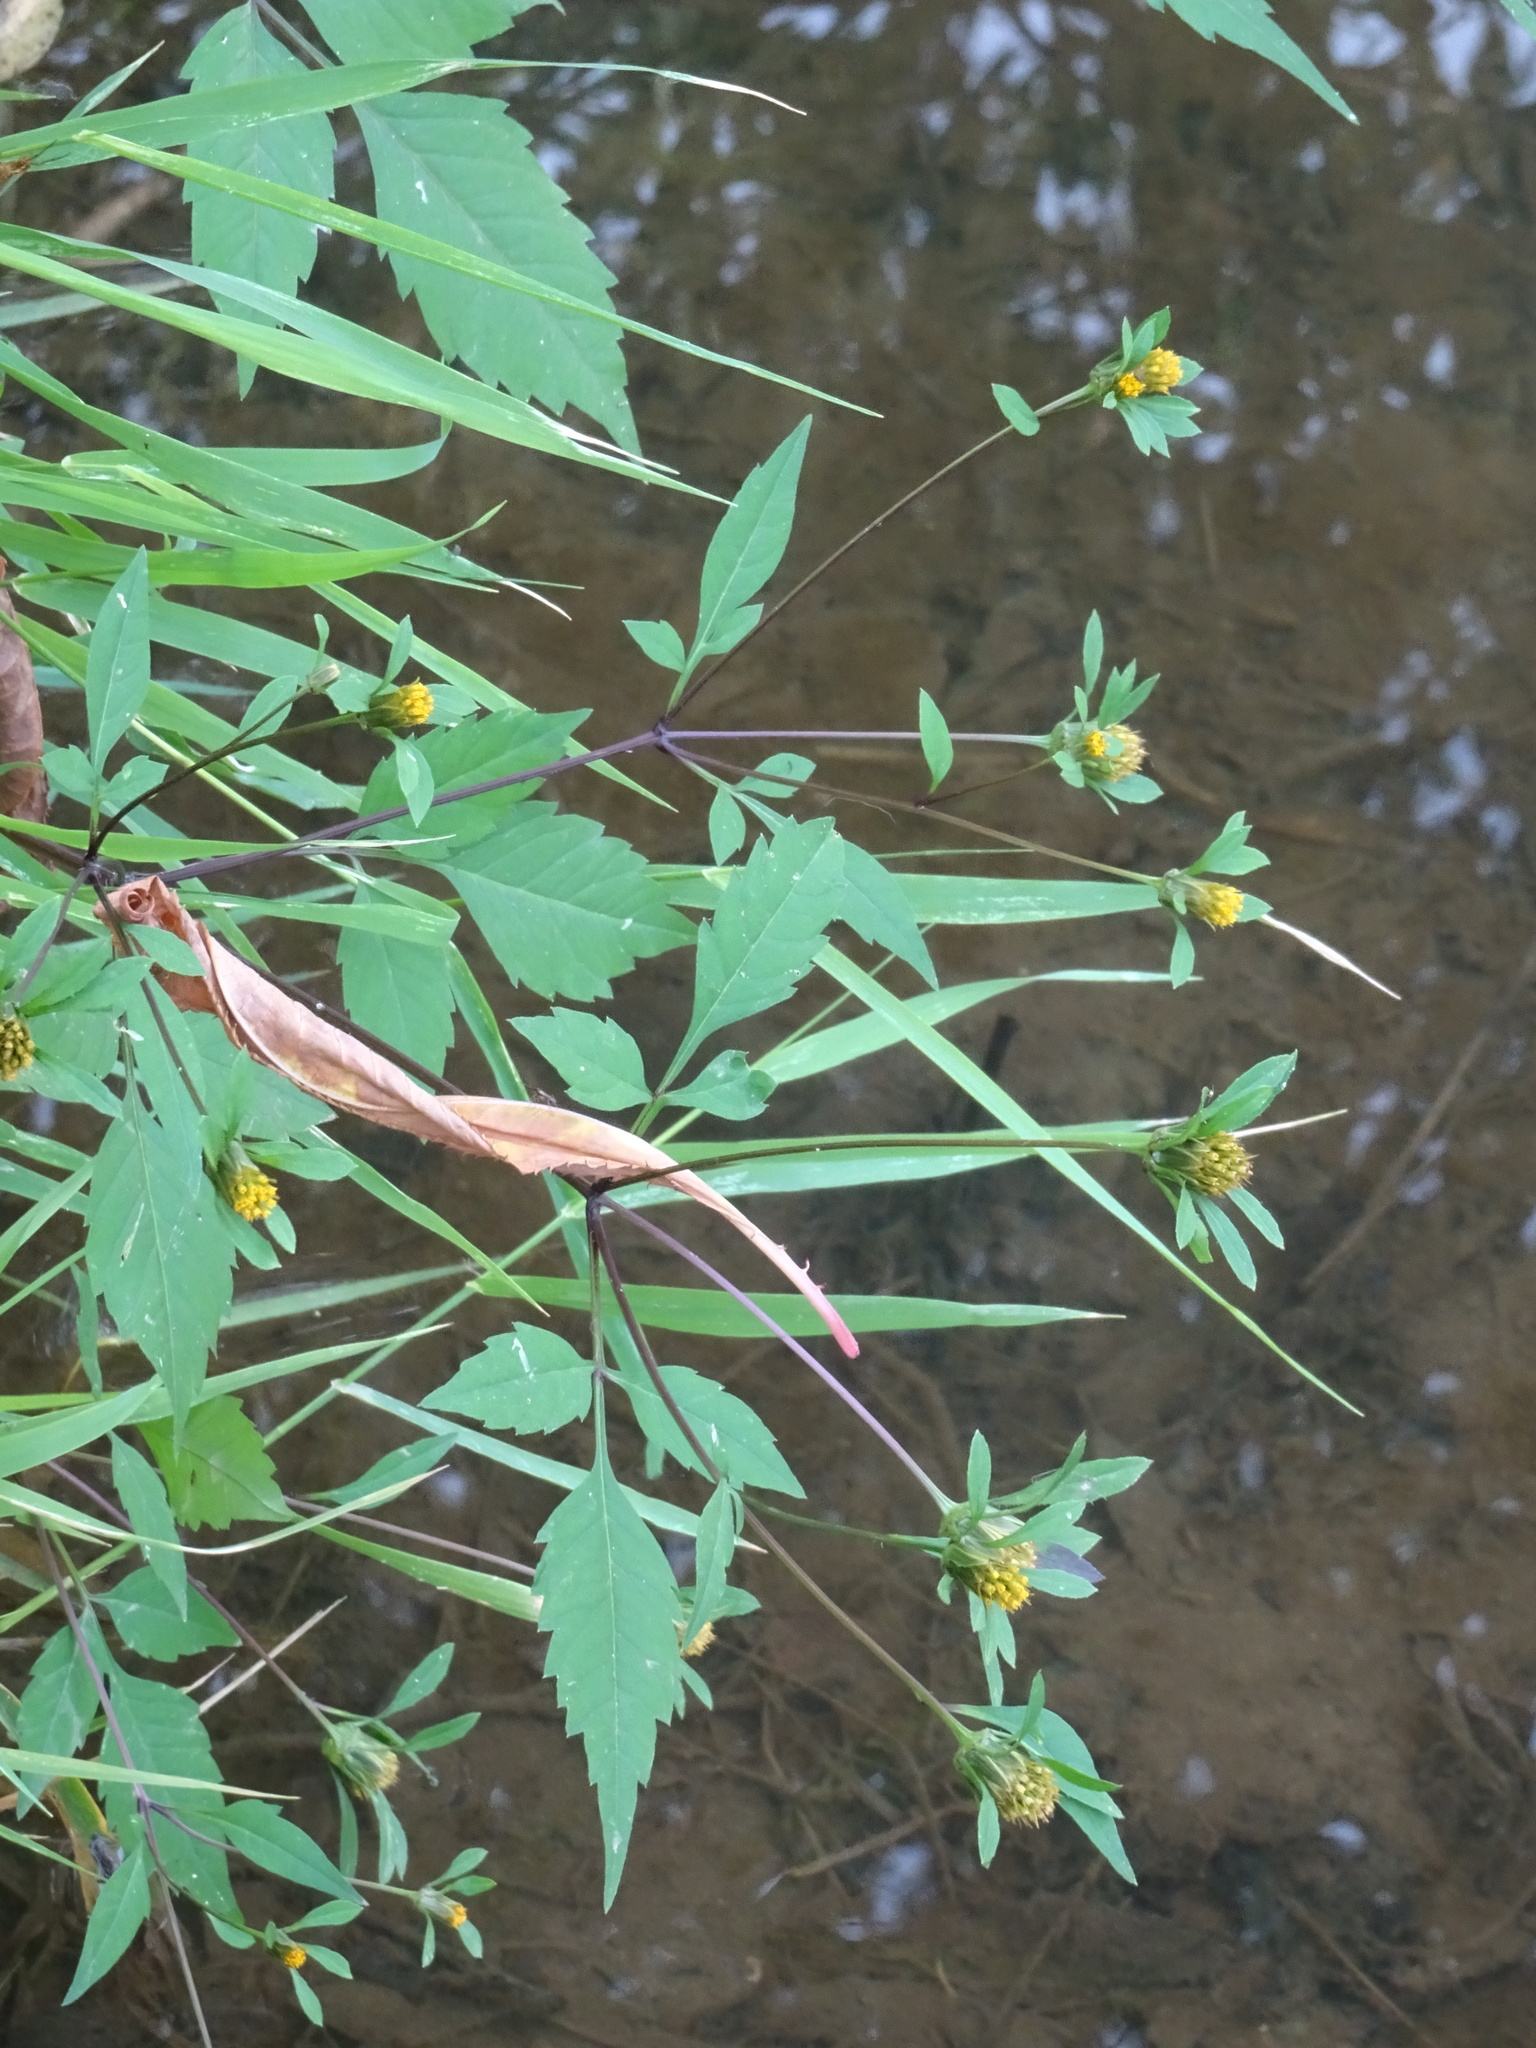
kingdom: Plantae
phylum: Tracheophyta
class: Magnoliopsida
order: Asterales
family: Asteraceae
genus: Bidens
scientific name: Bidens frondosa
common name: Beggarticks
